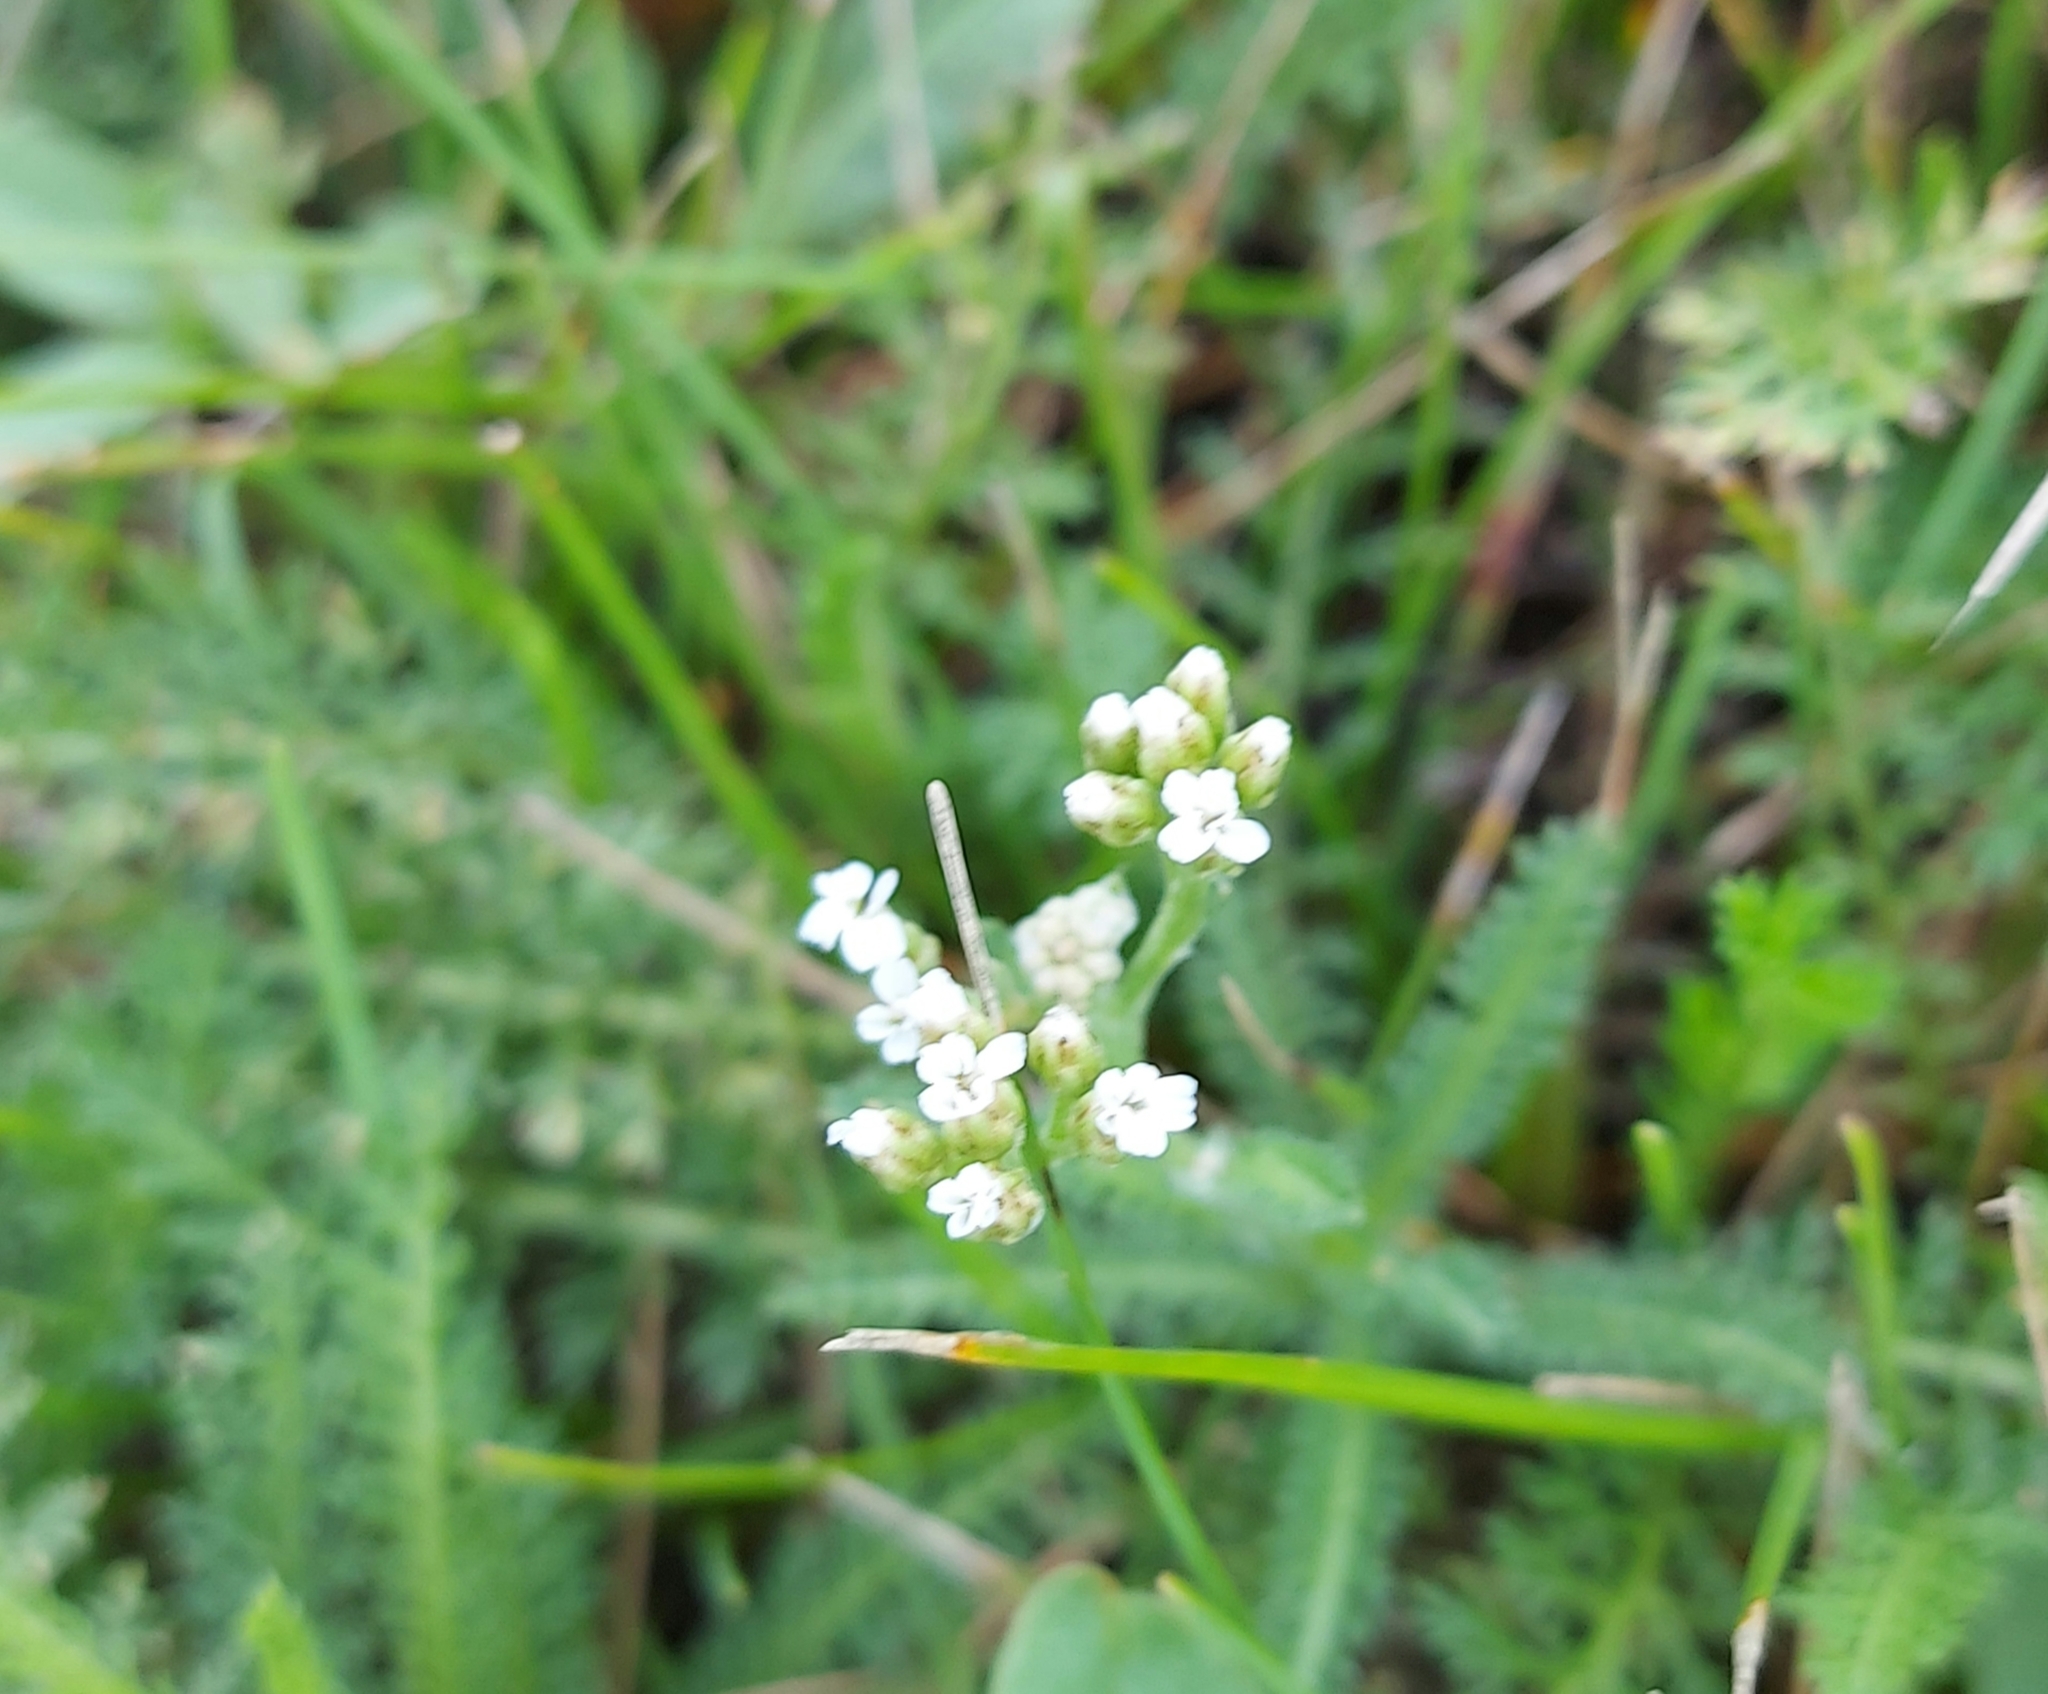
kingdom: Plantae
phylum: Tracheophyta
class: Magnoliopsida
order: Asterales
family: Asteraceae
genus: Achillea
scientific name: Achillea
